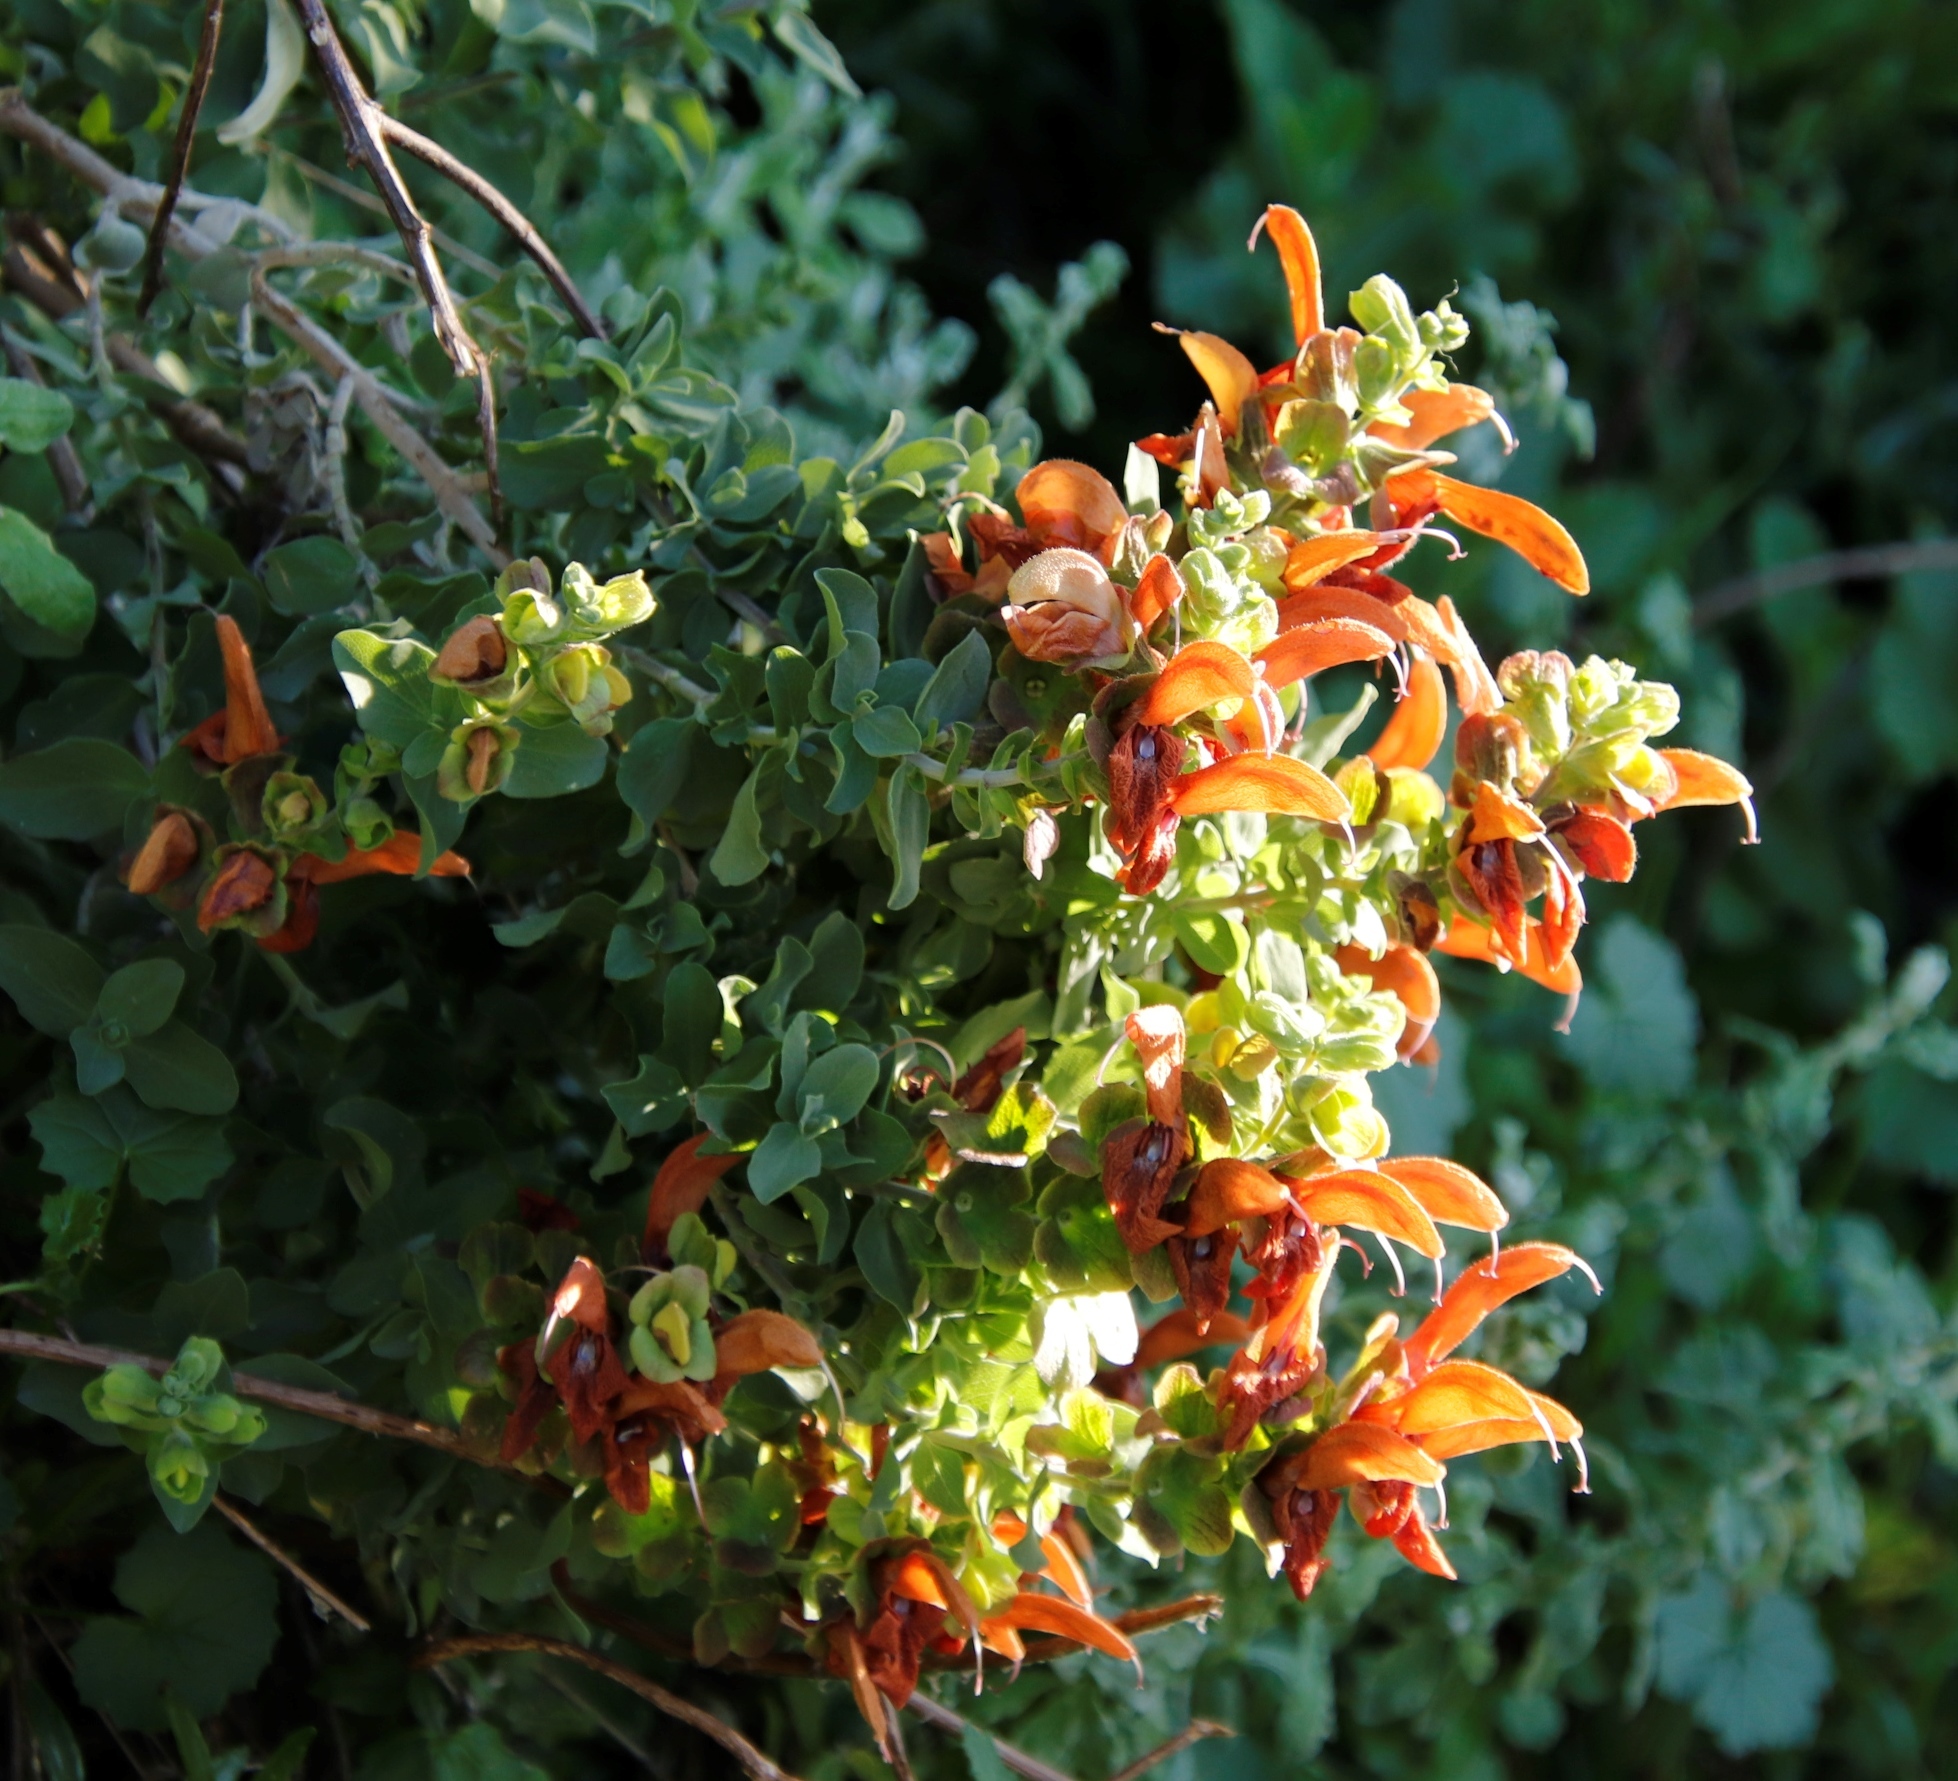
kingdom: Plantae
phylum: Tracheophyta
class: Magnoliopsida
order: Lamiales
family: Lamiaceae
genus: Salvia
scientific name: Salvia aurea
